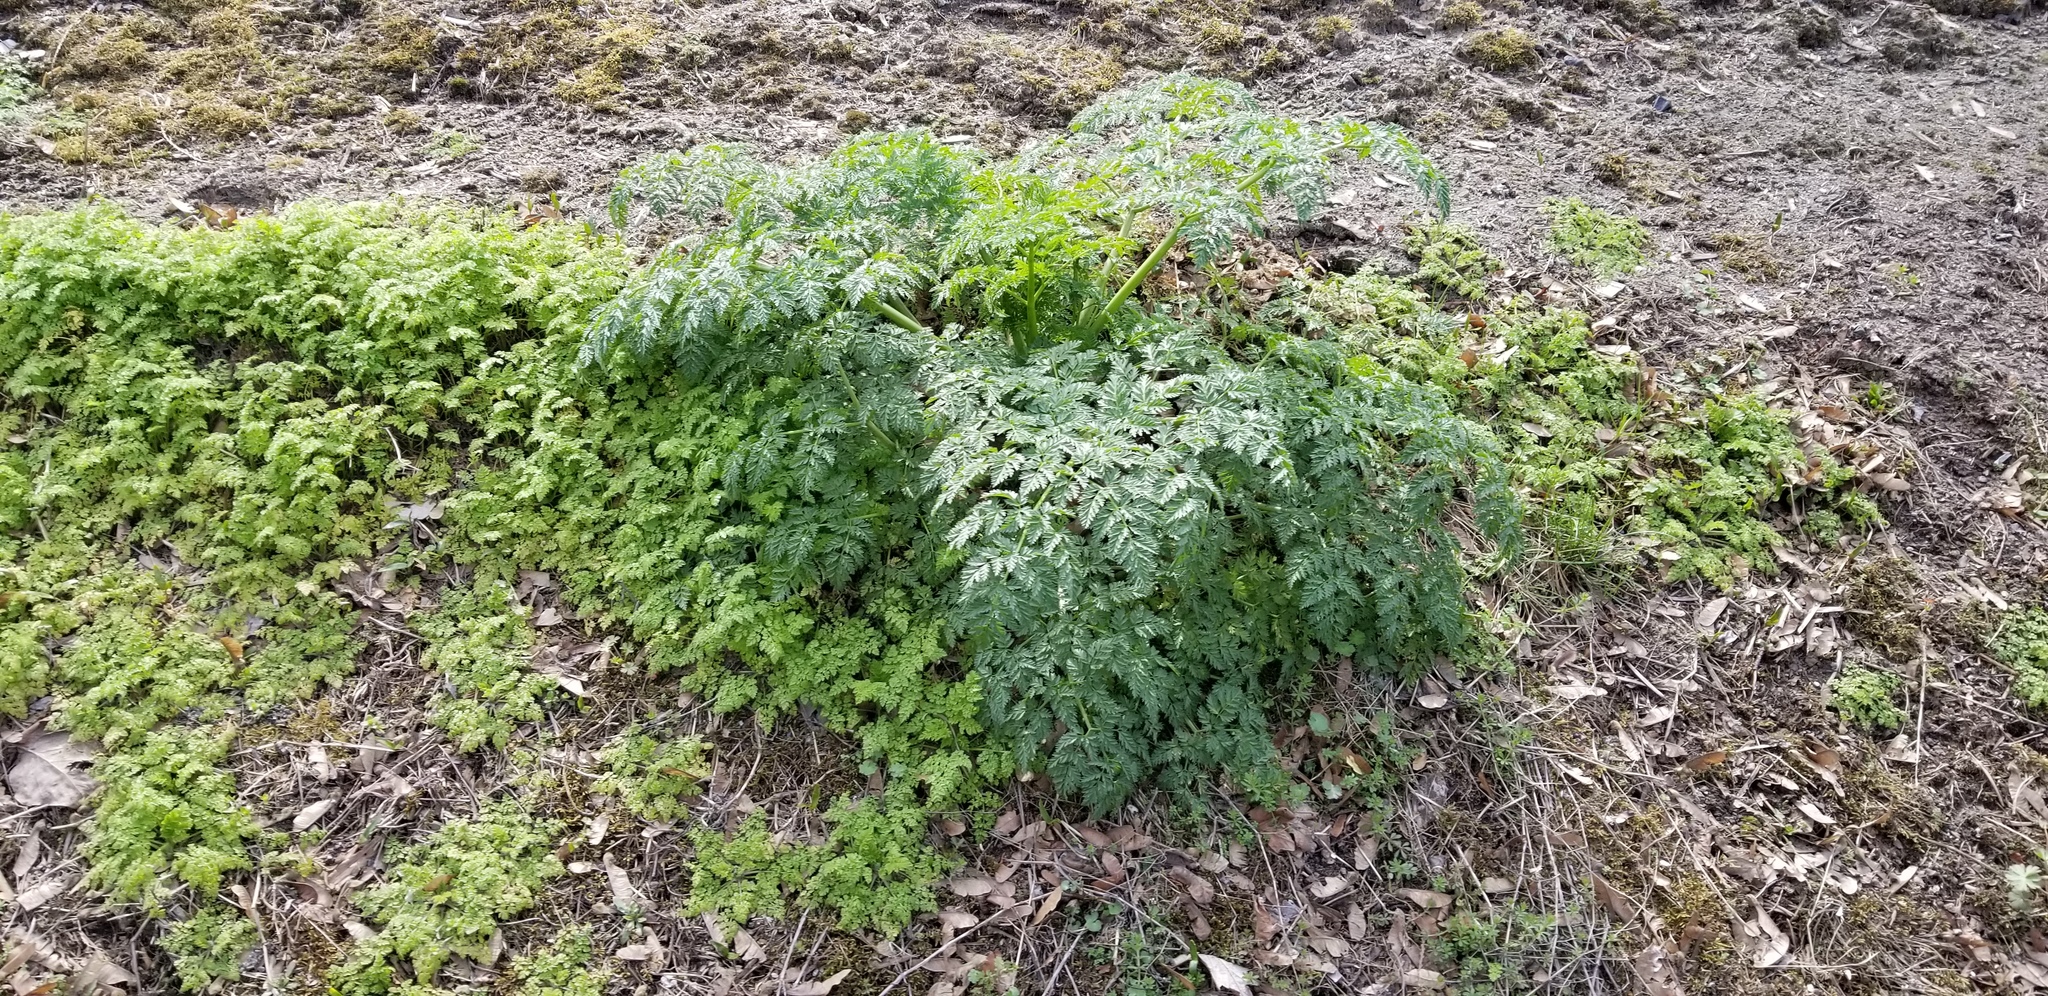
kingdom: Plantae
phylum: Tracheophyta
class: Magnoliopsida
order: Apiales
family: Apiaceae
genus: Conium
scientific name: Conium maculatum
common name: Hemlock
